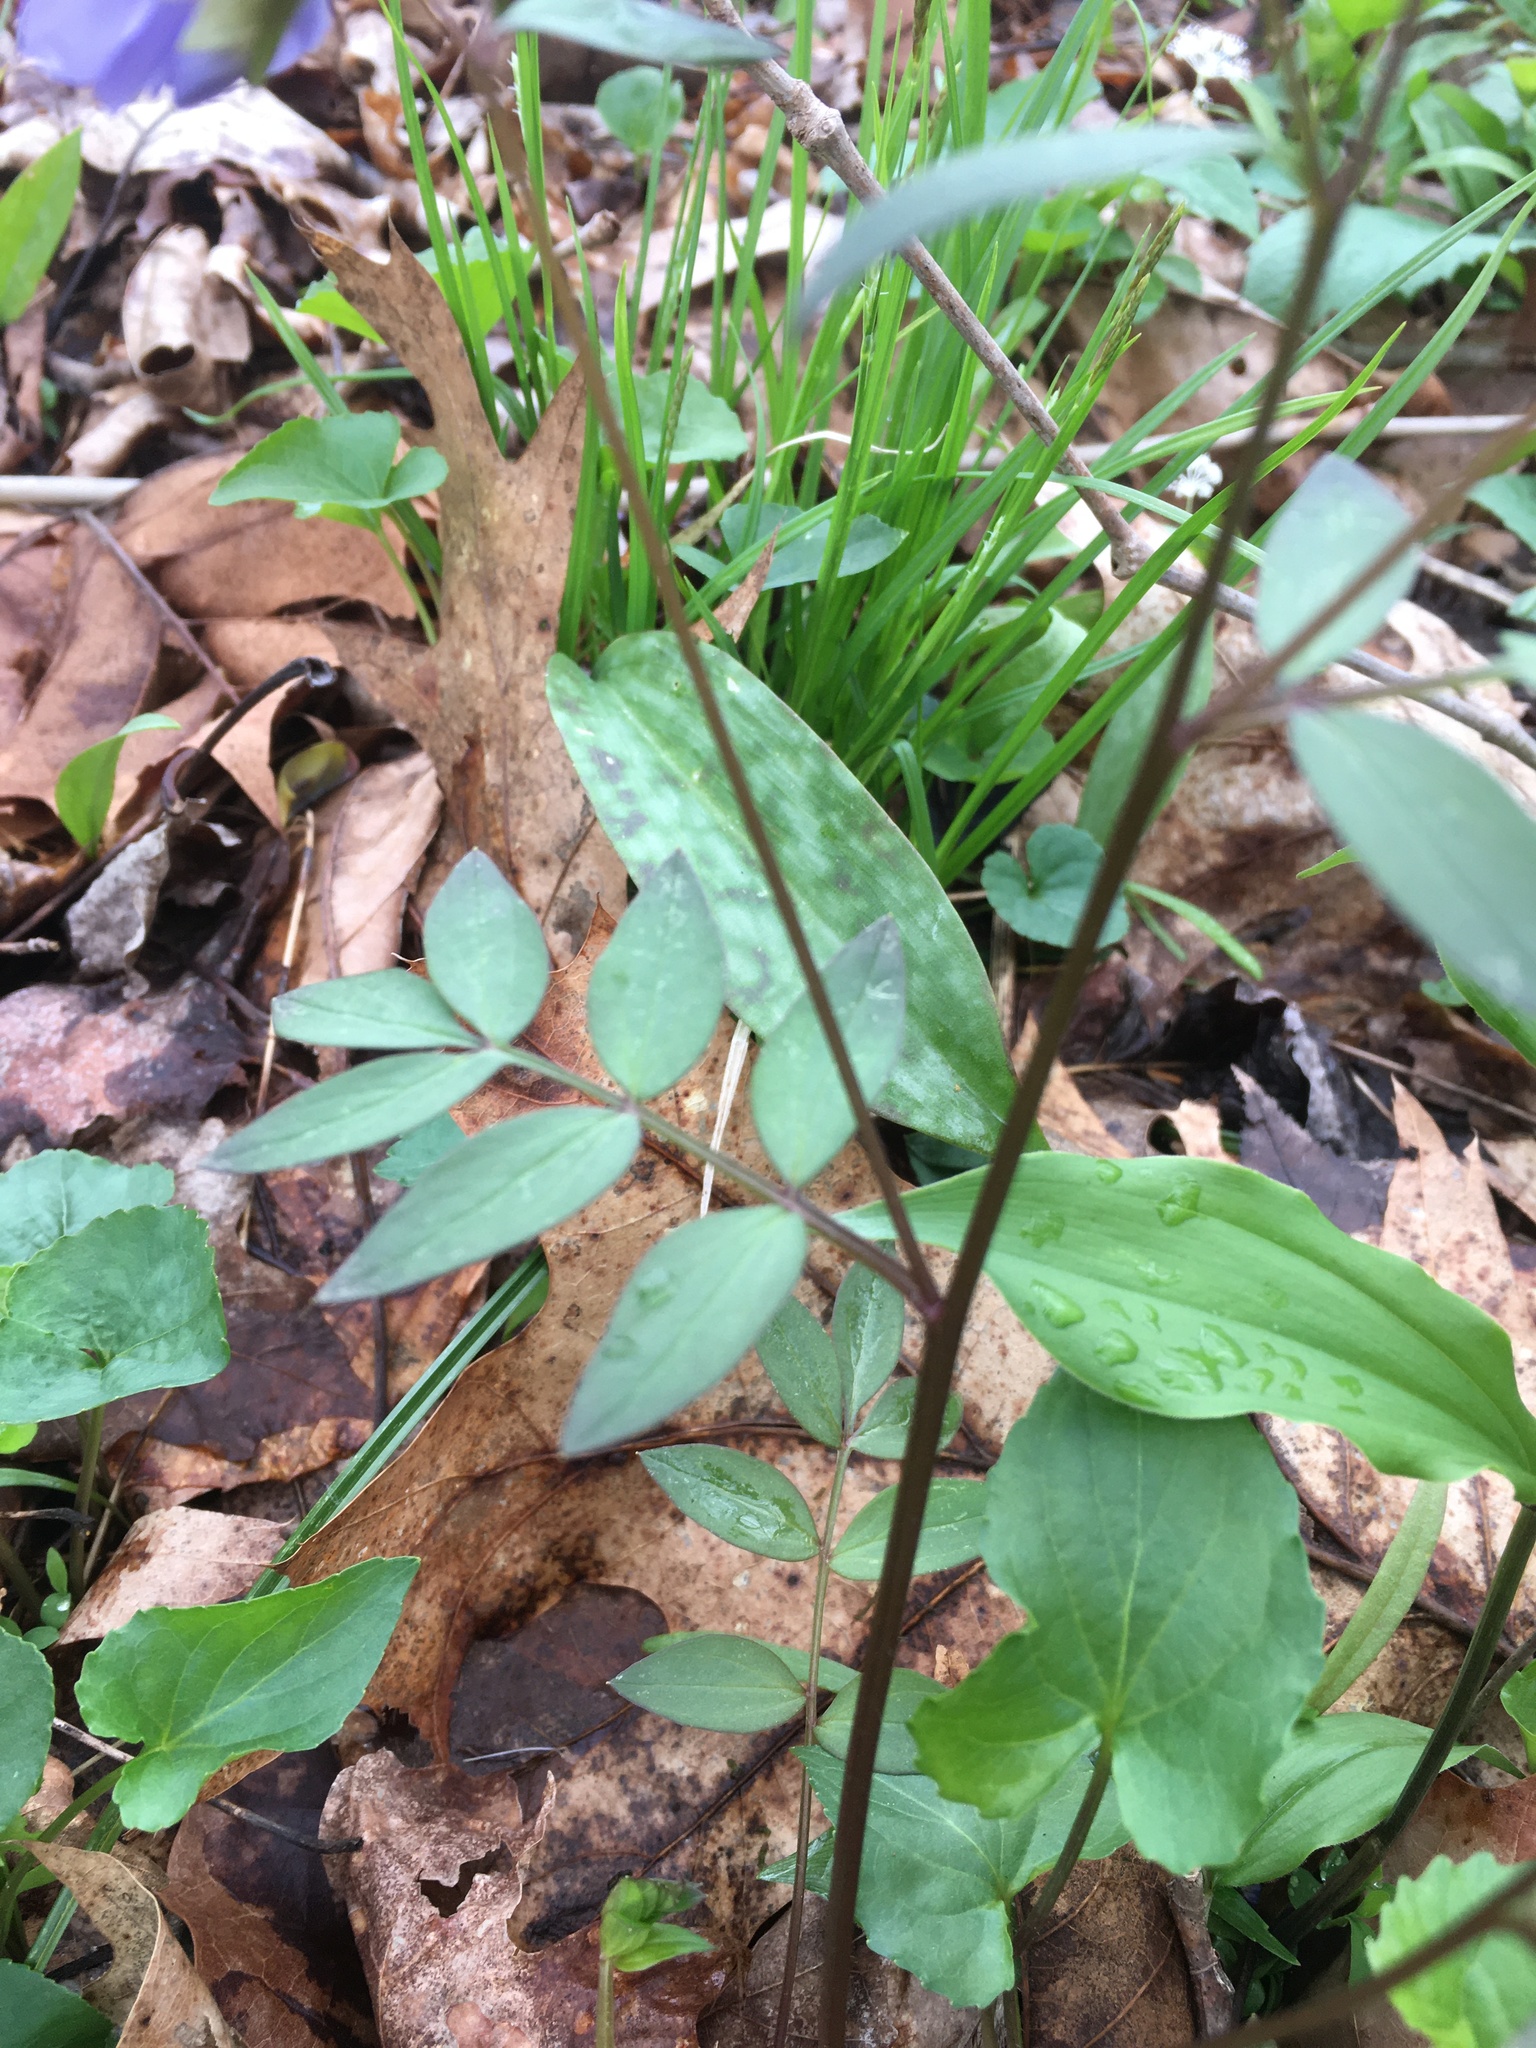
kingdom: Plantae
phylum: Tracheophyta
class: Magnoliopsida
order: Ericales
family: Polemoniaceae
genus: Polemonium
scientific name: Polemonium reptans
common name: Creeping jacob's-ladder
